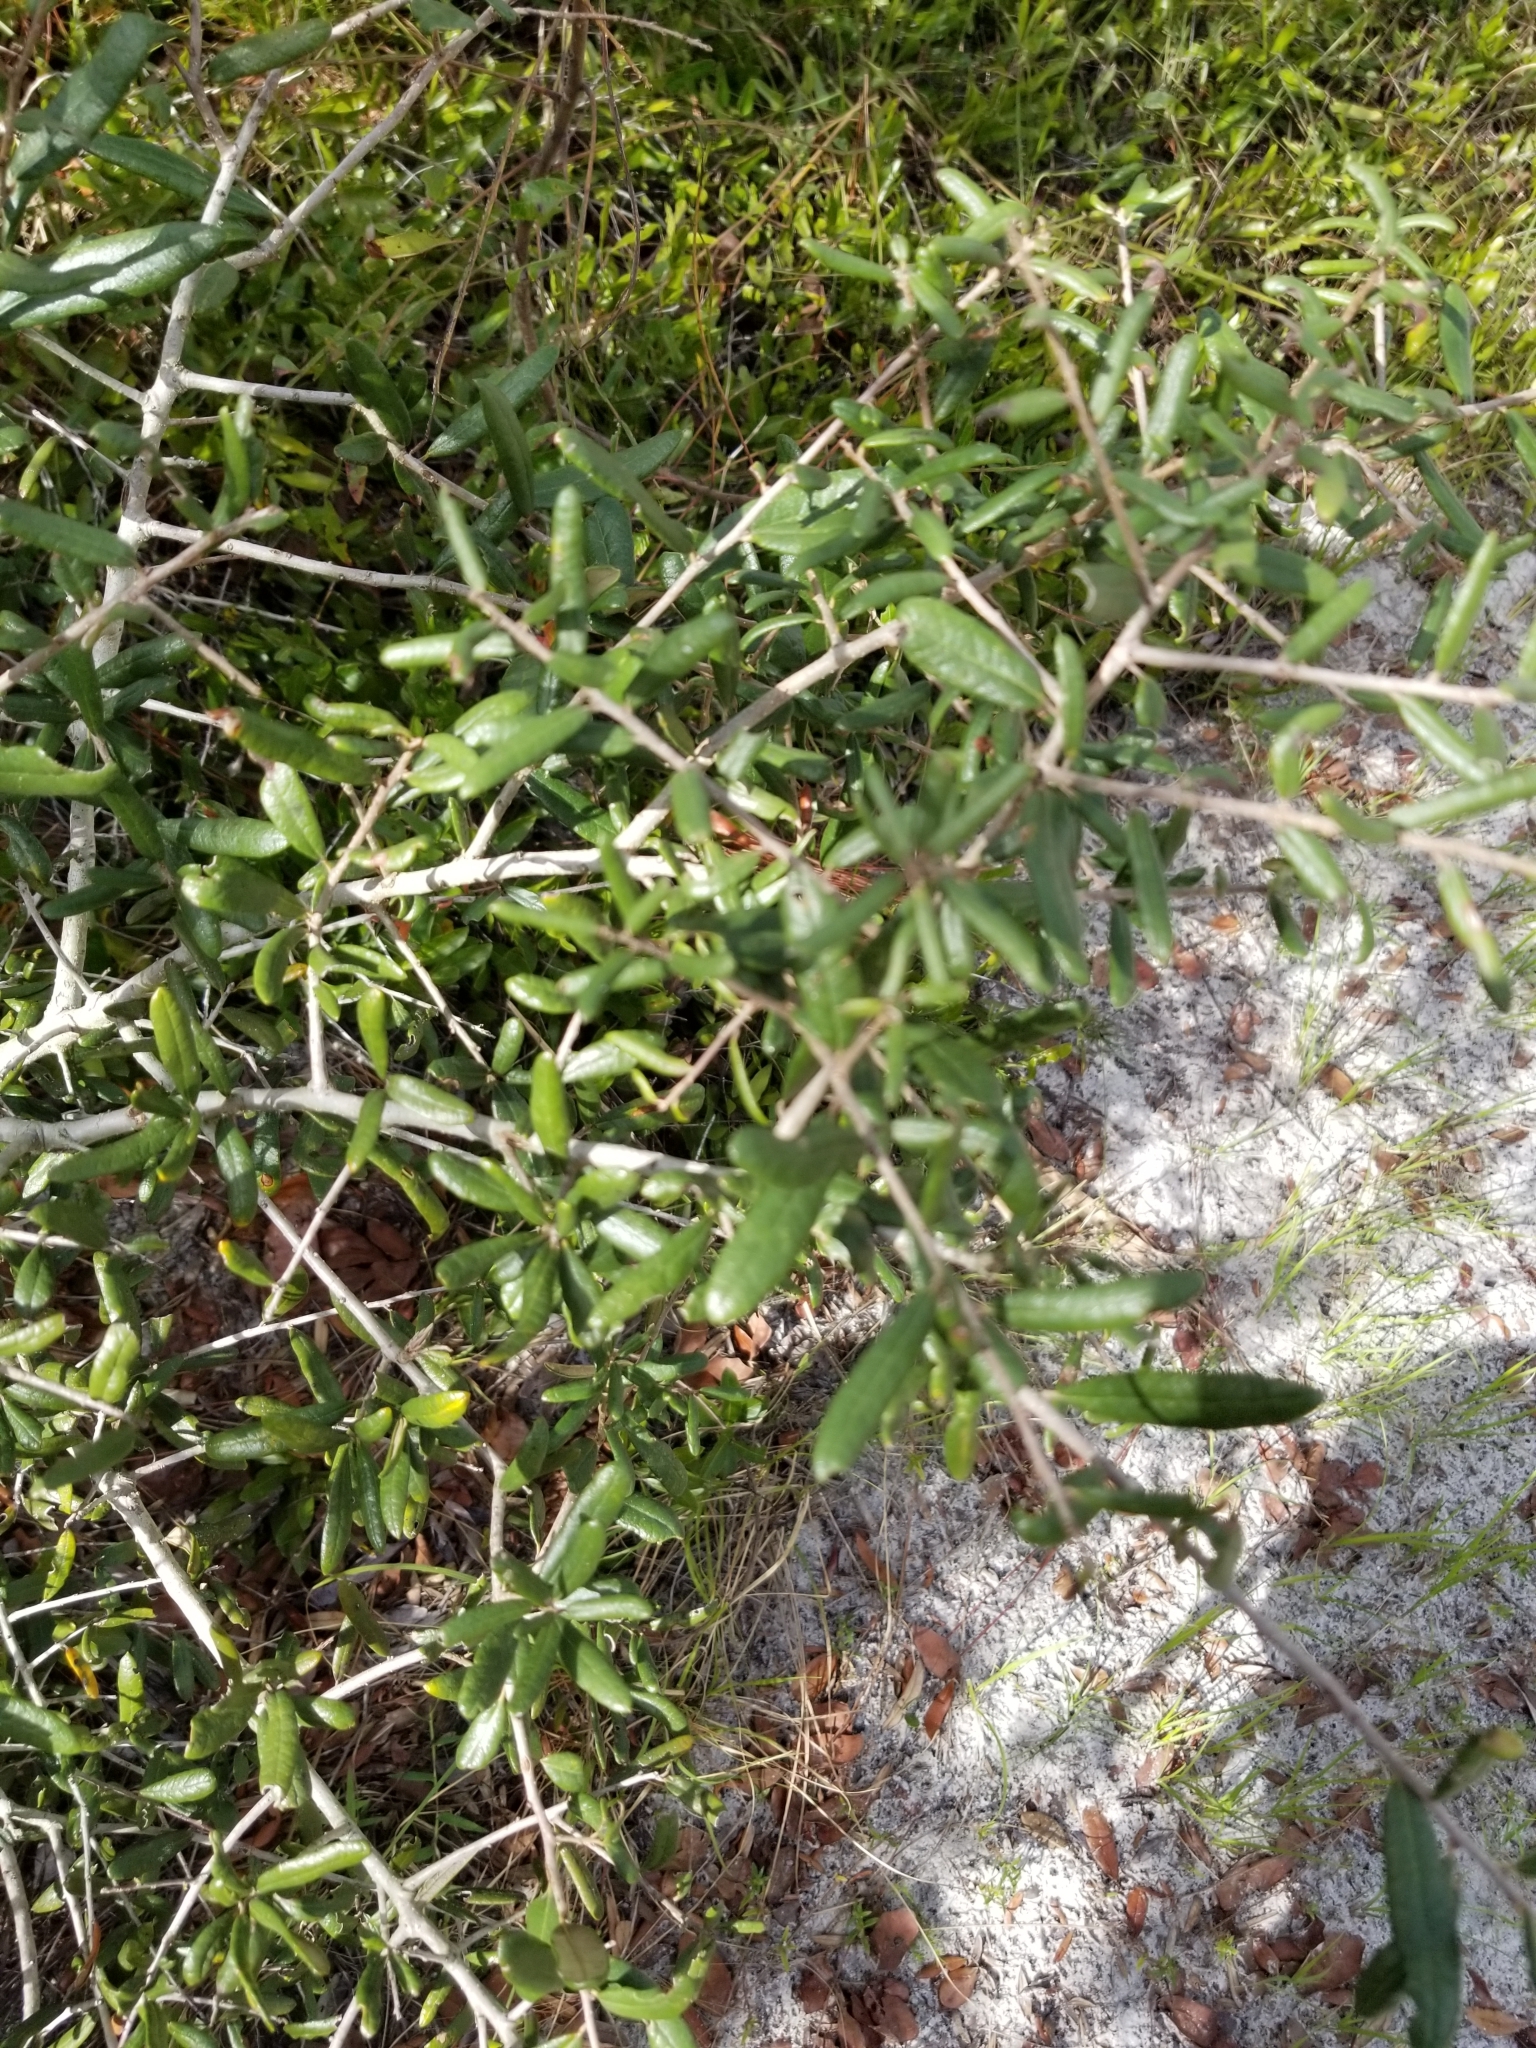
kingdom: Plantae
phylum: Tracheophyta
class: Magnoliopsida
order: Fagales
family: Fagaceae
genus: Quercus
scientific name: Quercus geminata
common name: Sand live oak
